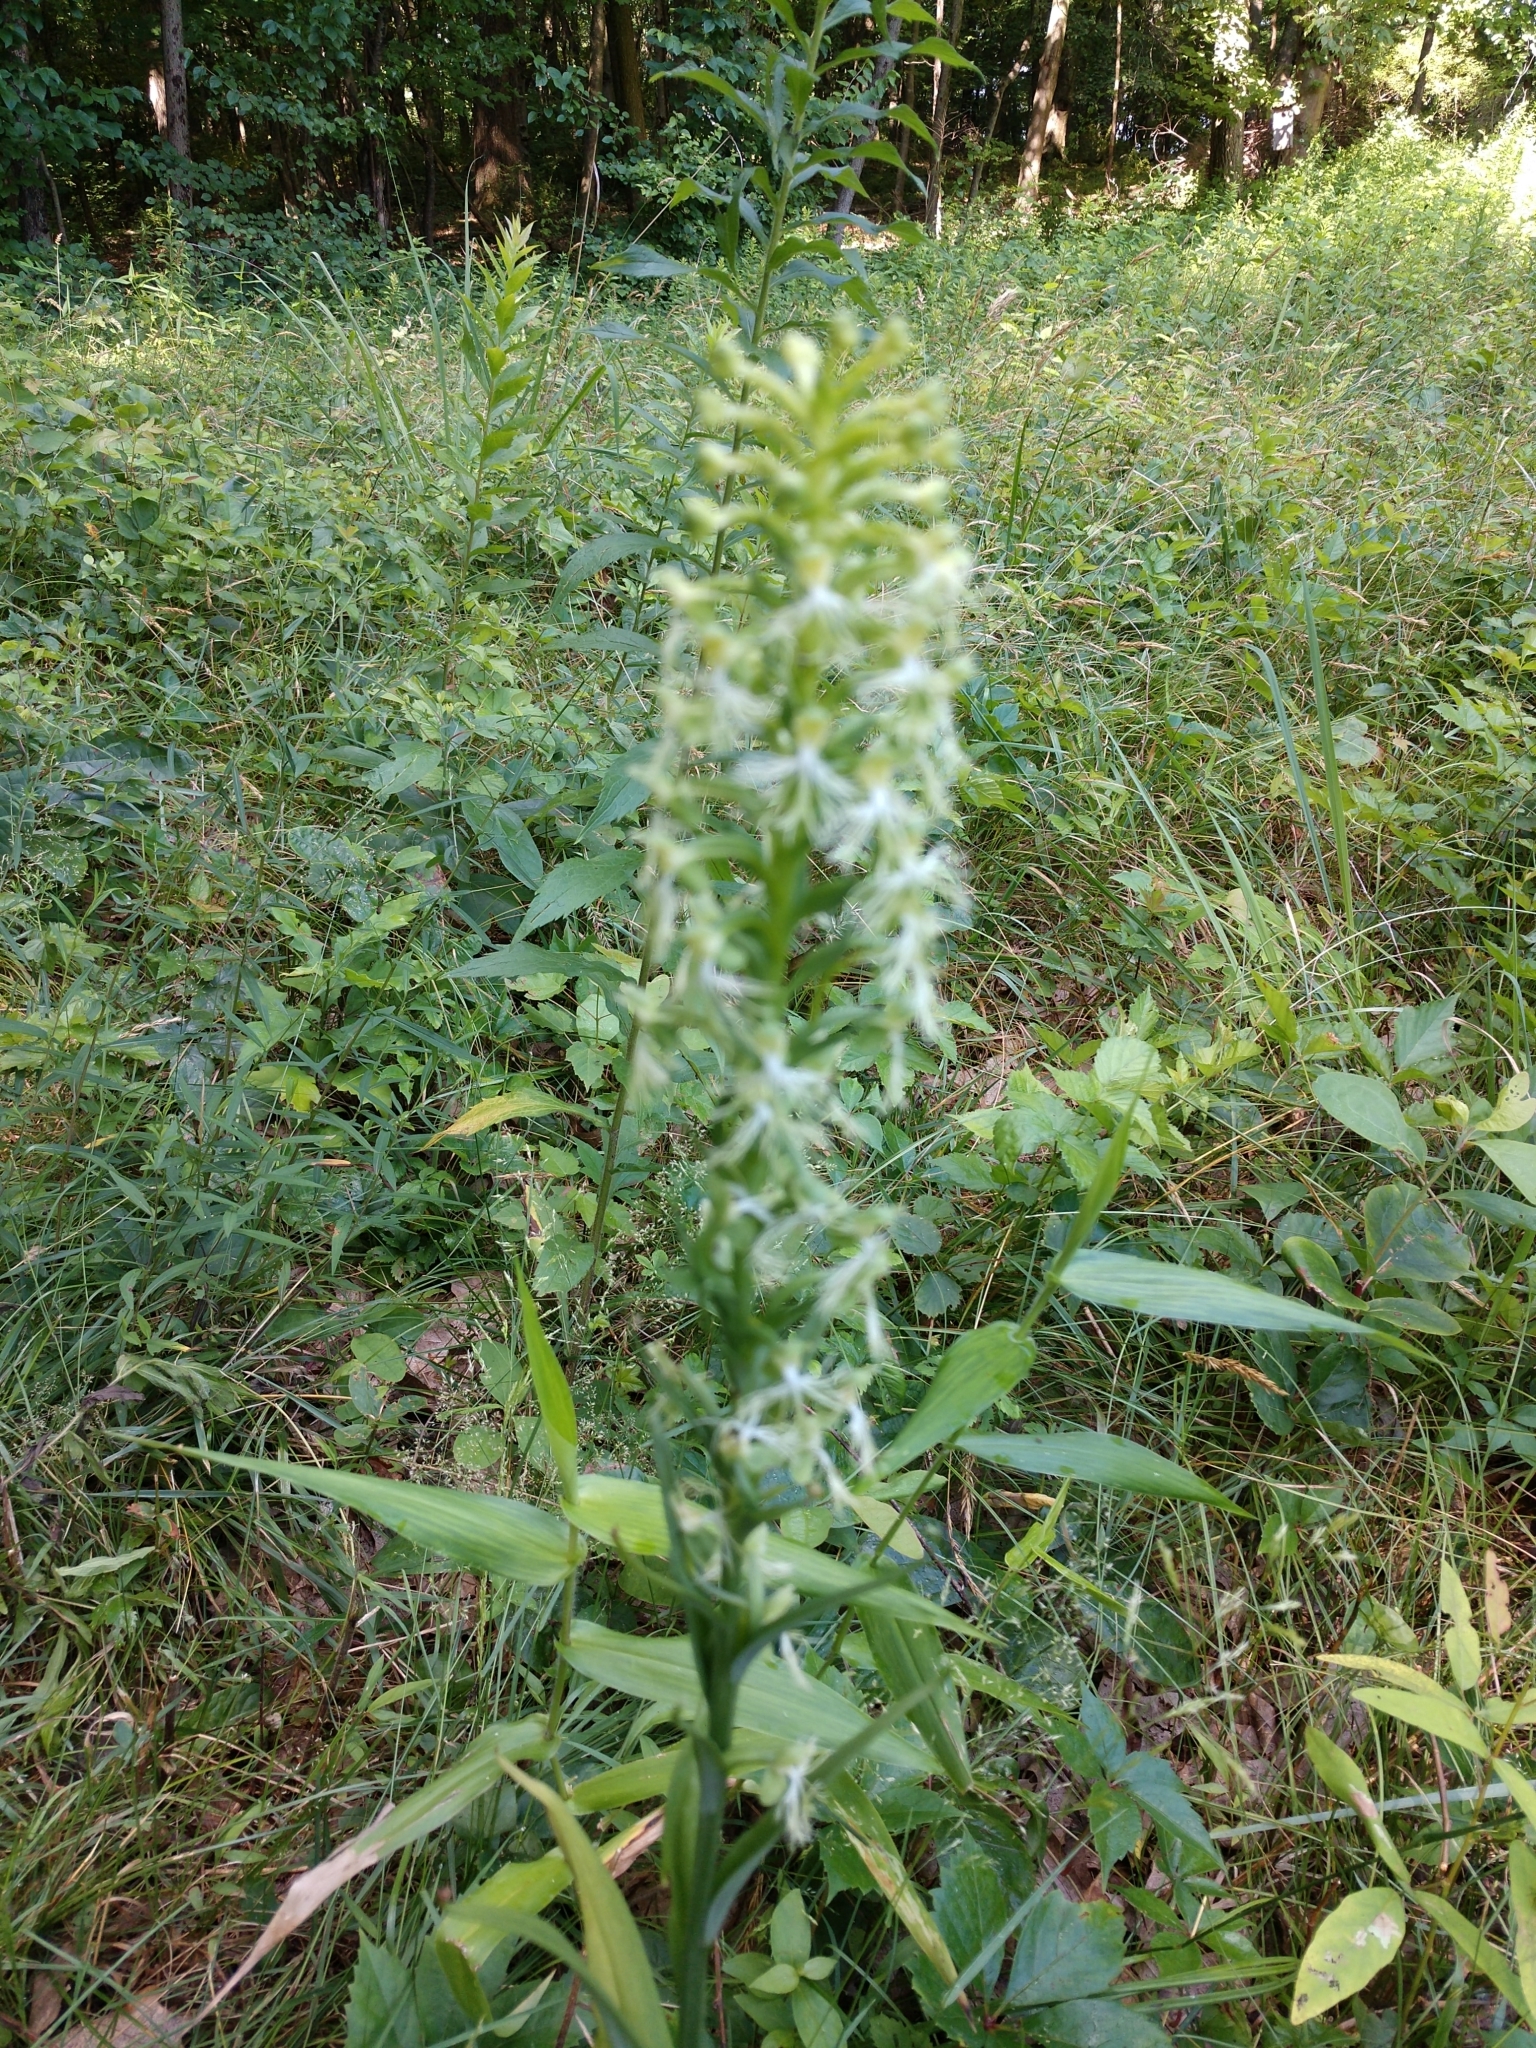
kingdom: Plantae
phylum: Tracheophyta
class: Liliopsida
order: Asparagales
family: Orchidaceae
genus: Platanthera
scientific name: Platanthera lacera
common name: Green fringed orchid
